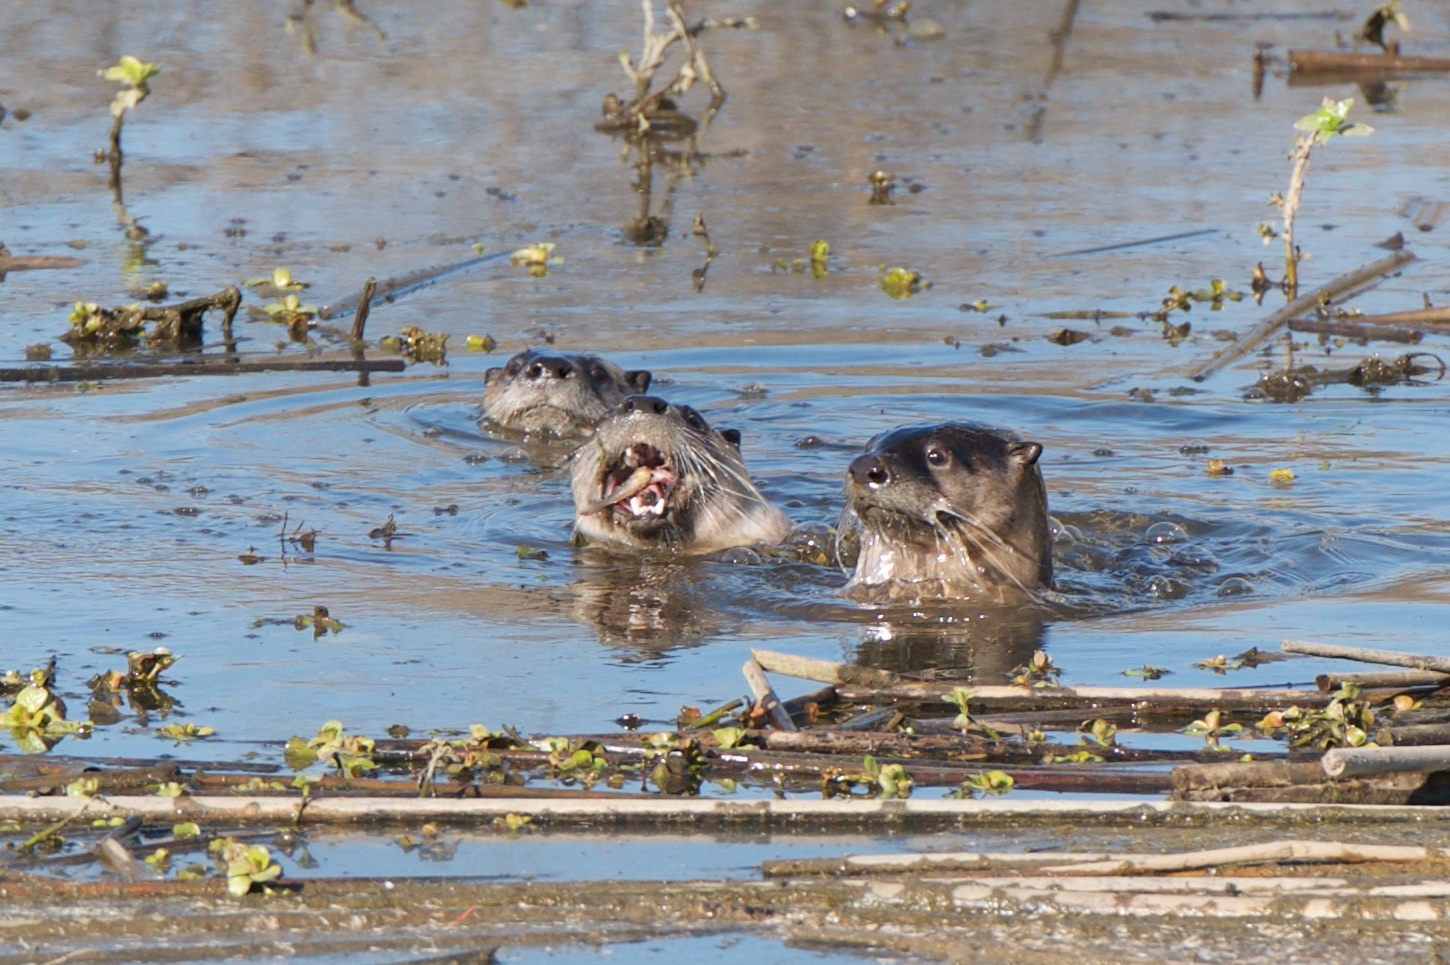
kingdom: Animalia
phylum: Chordata
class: Mammalia
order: Carnivora
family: Mustelidae
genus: Lontra
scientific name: Lontra canadensis
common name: North american river otter
